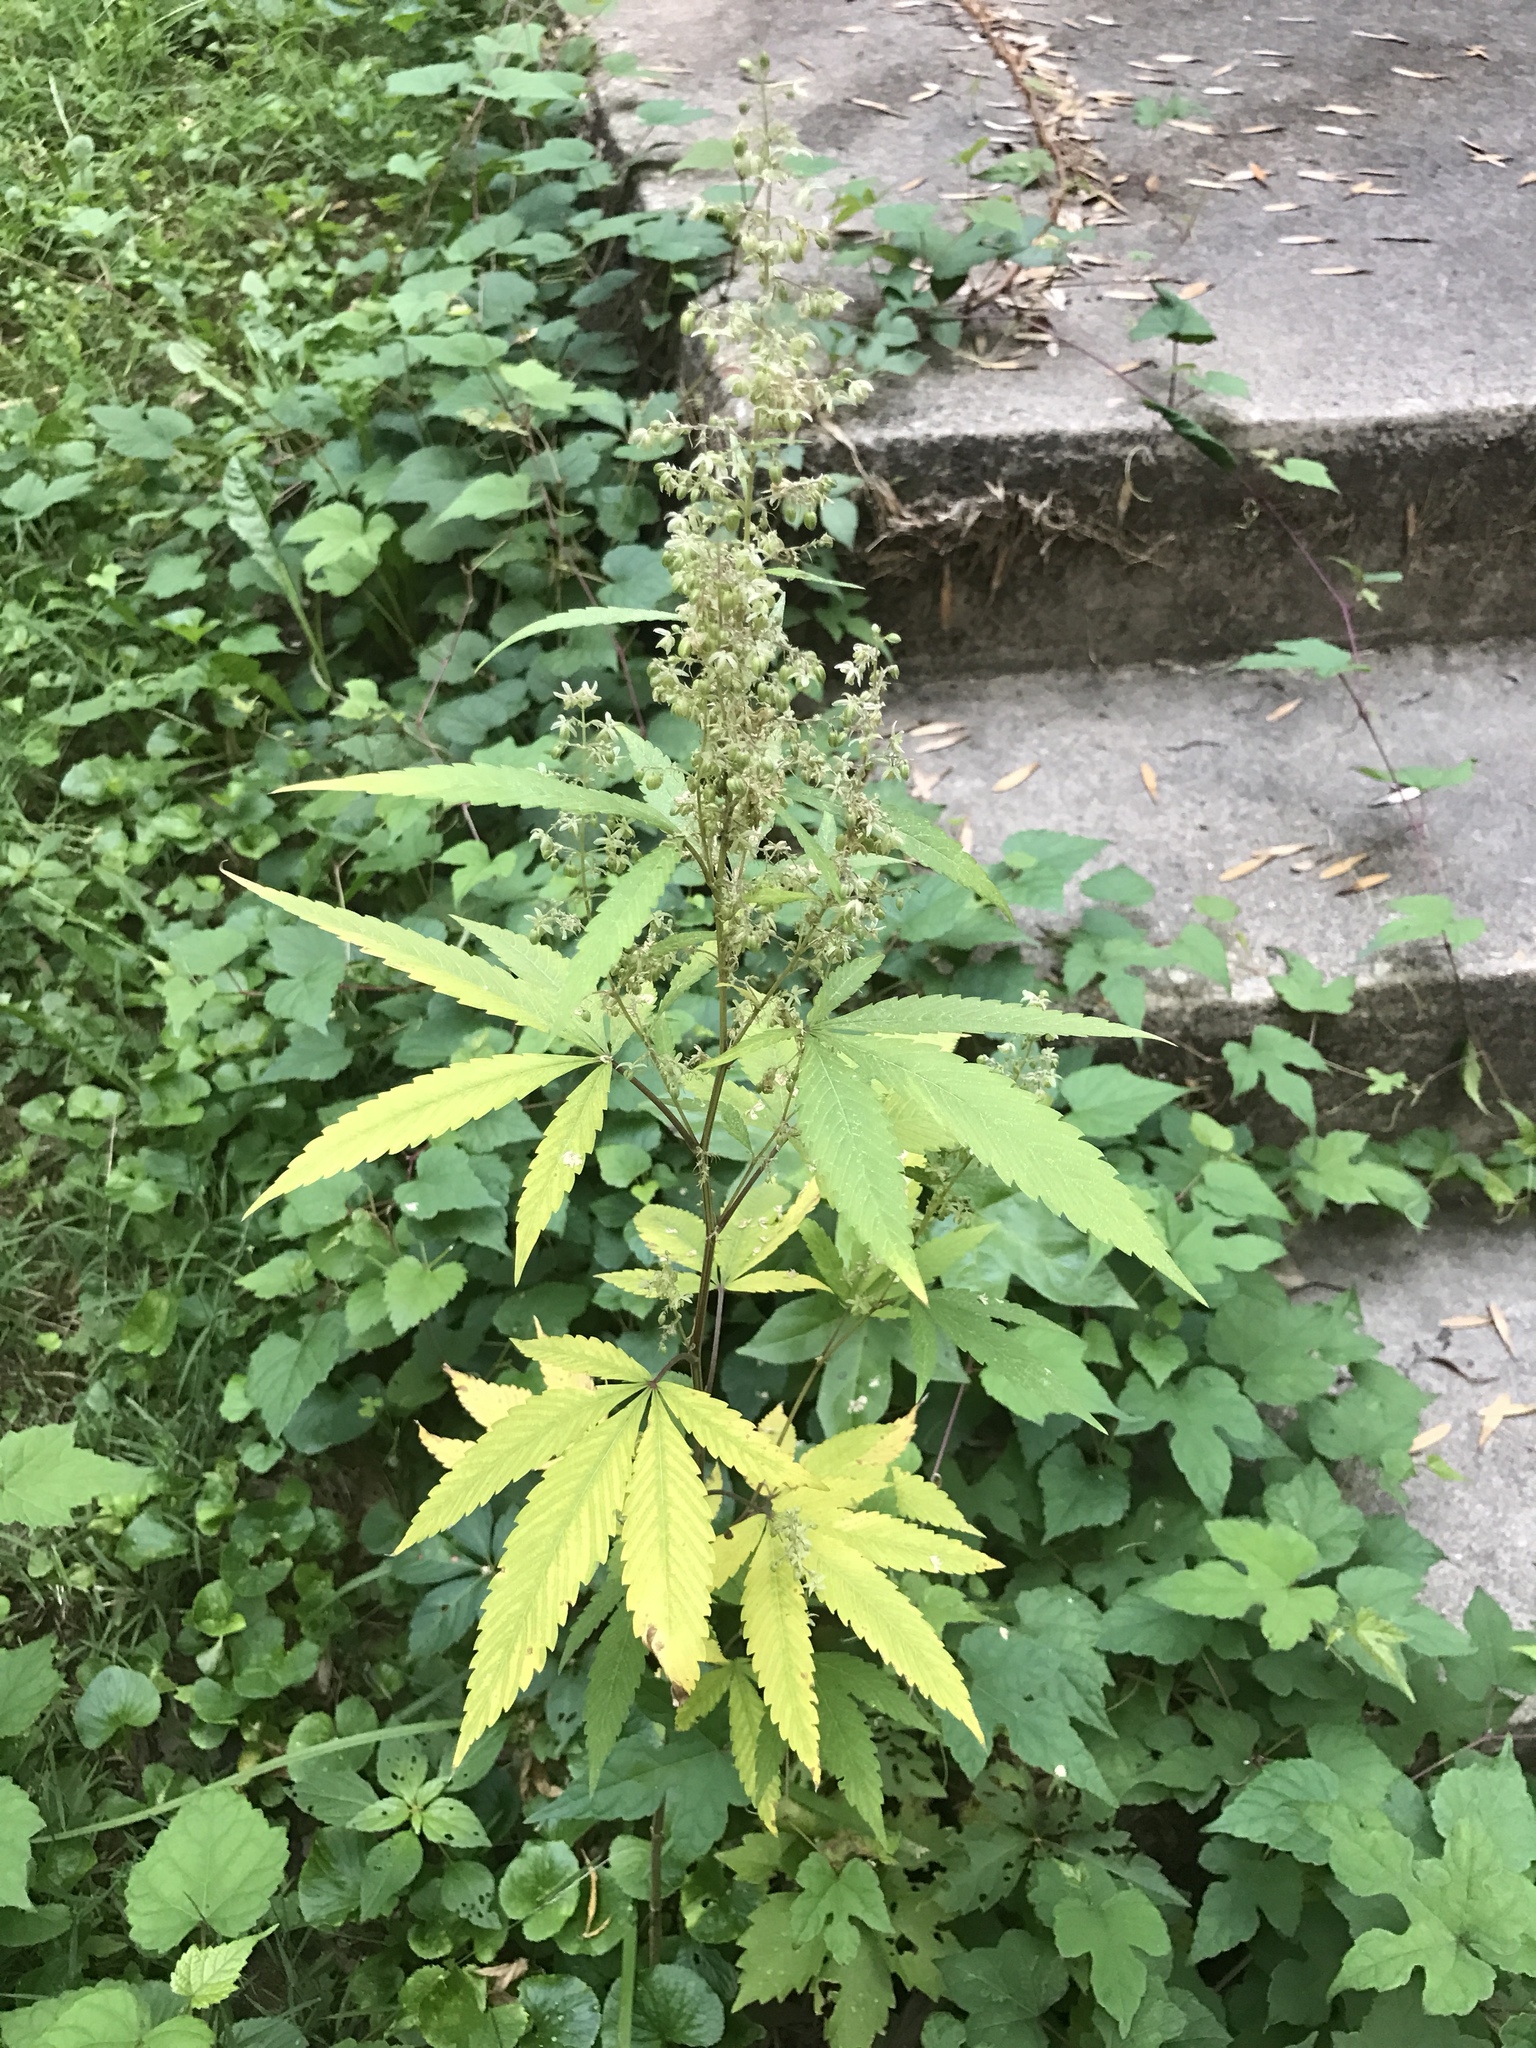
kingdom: Plantae
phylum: Tracheophyta
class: Magnoliopsida
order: Rosales
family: Cannabaceae
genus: Cannabis
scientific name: Cannabis sativa
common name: Hemp
